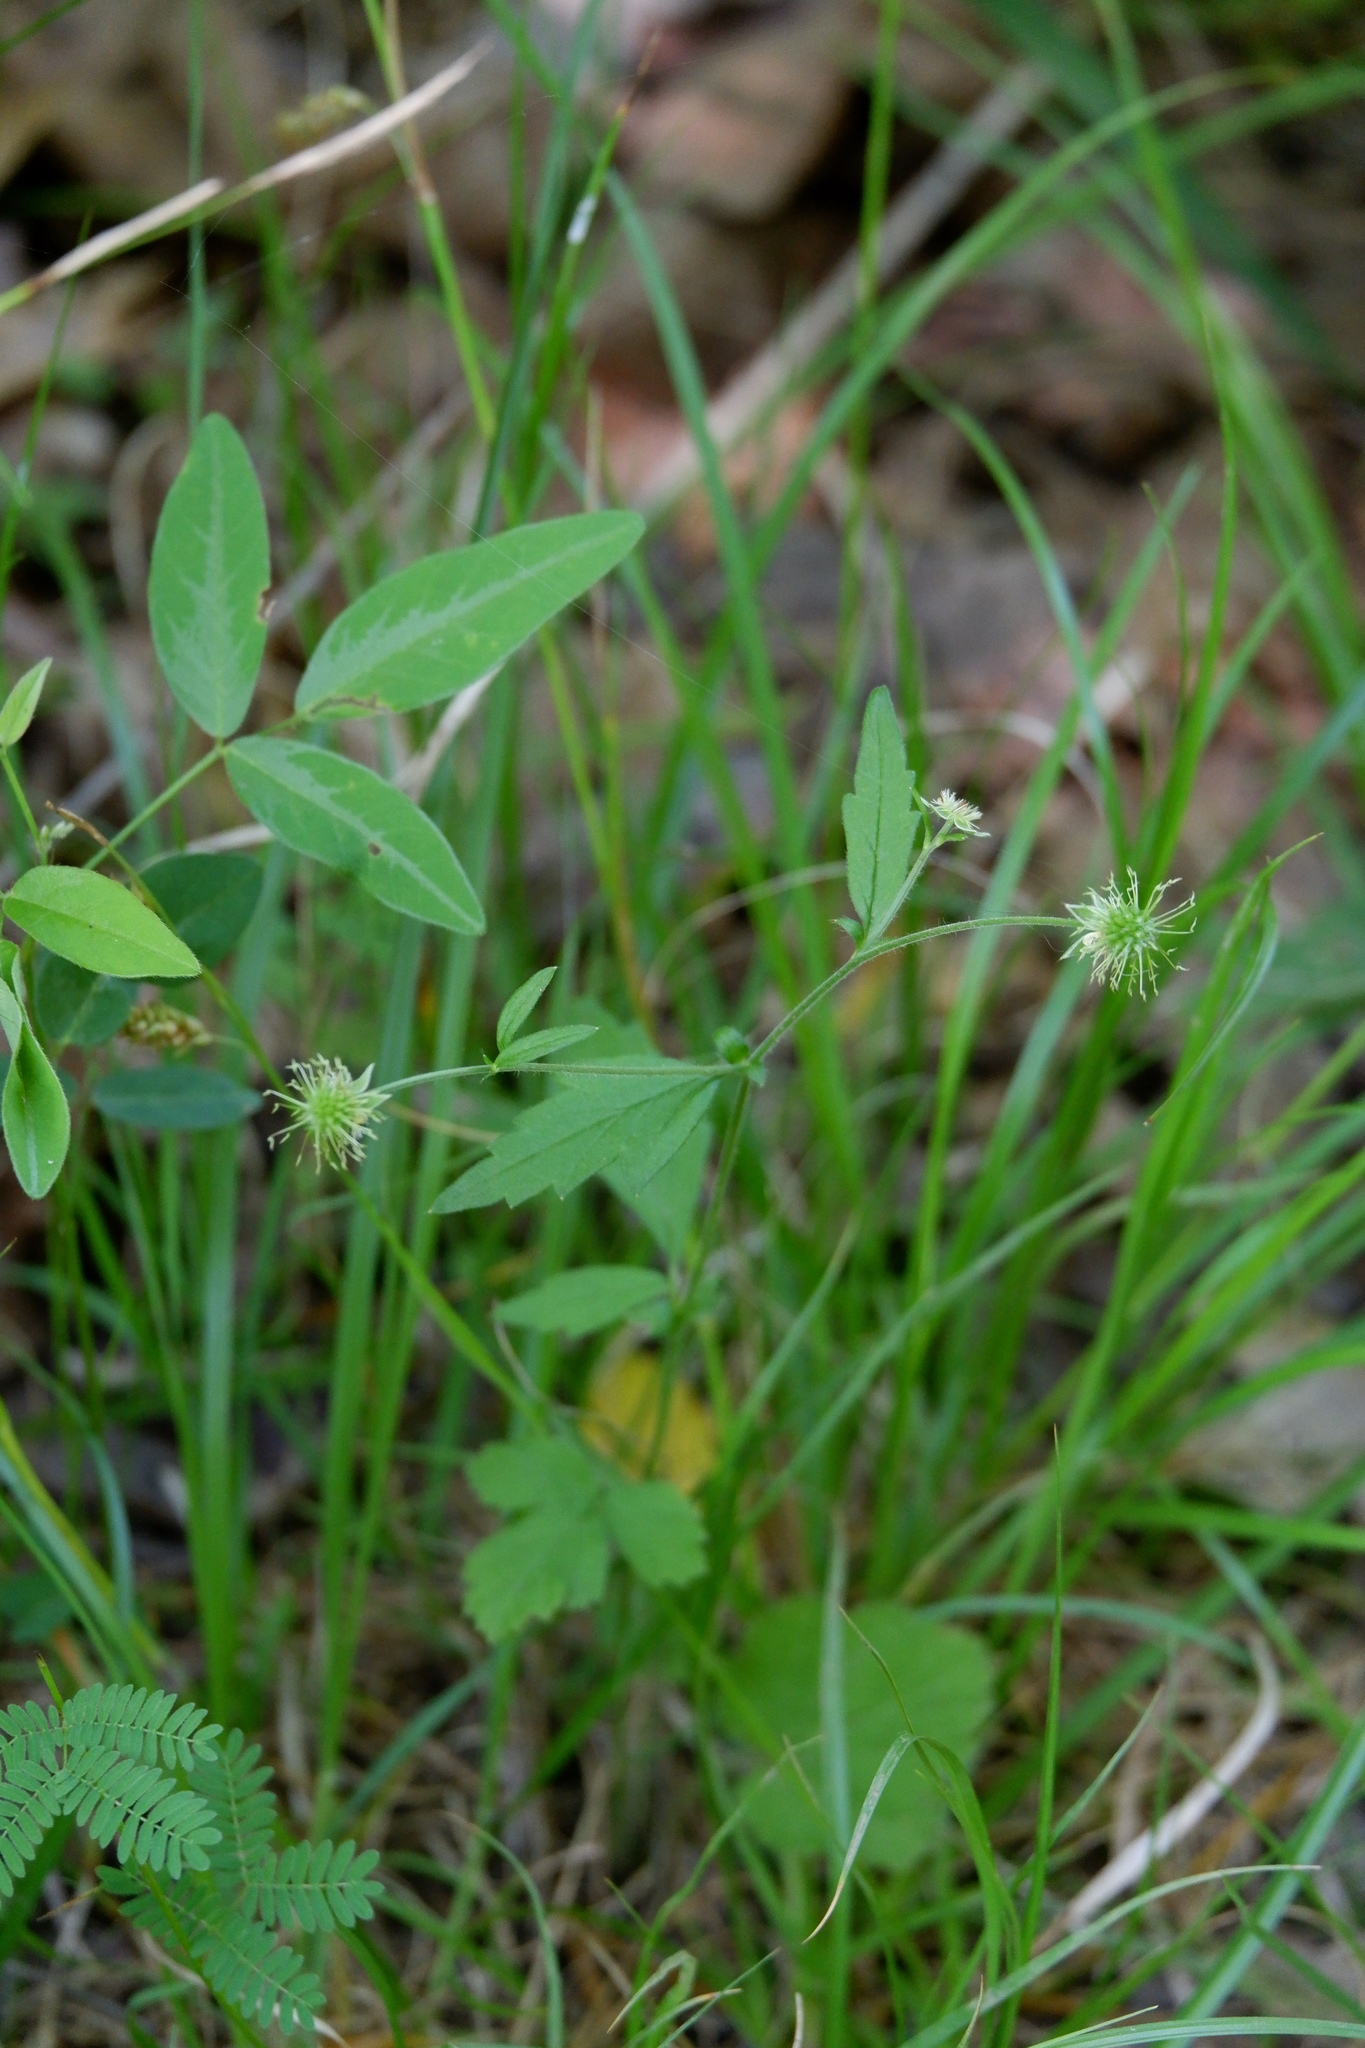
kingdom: Plantae
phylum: Tracheophyta
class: Magnoliopsida
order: Rosales
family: Rosaceae
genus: Geum
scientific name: Geum canadense
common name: White avens
